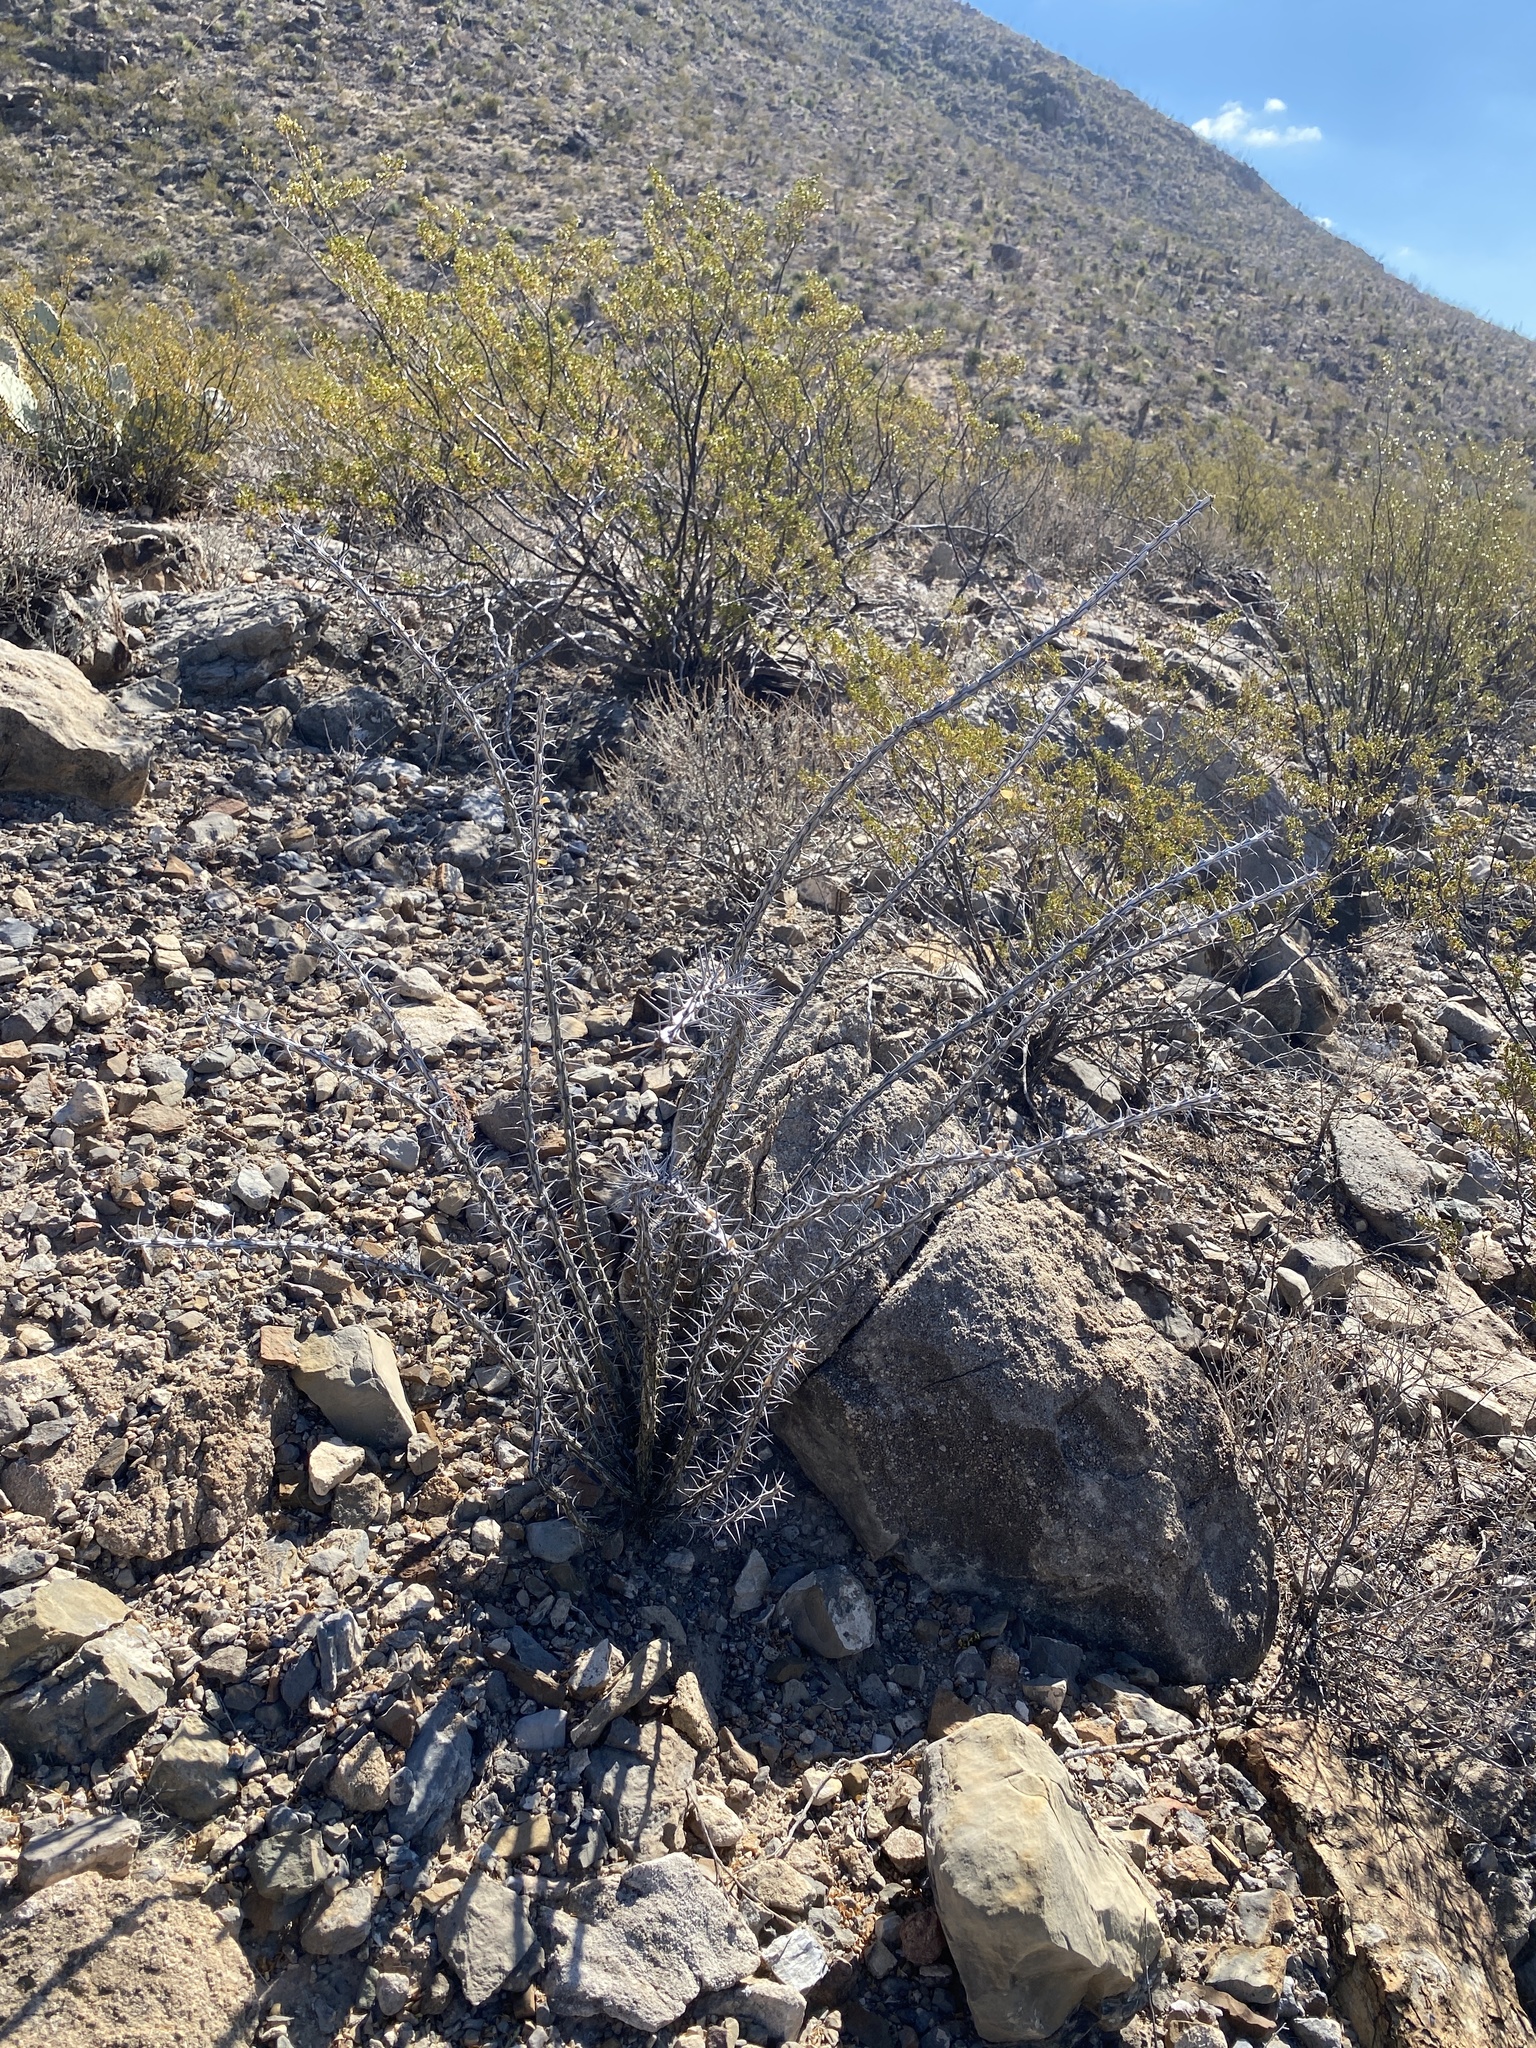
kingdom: Plantae
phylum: Tracheophyta
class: Magnoliopsida
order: Ericales
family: Fouquieriaceae
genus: Fouquieria
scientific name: Fouquieria splendens
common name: Vine-cactus
